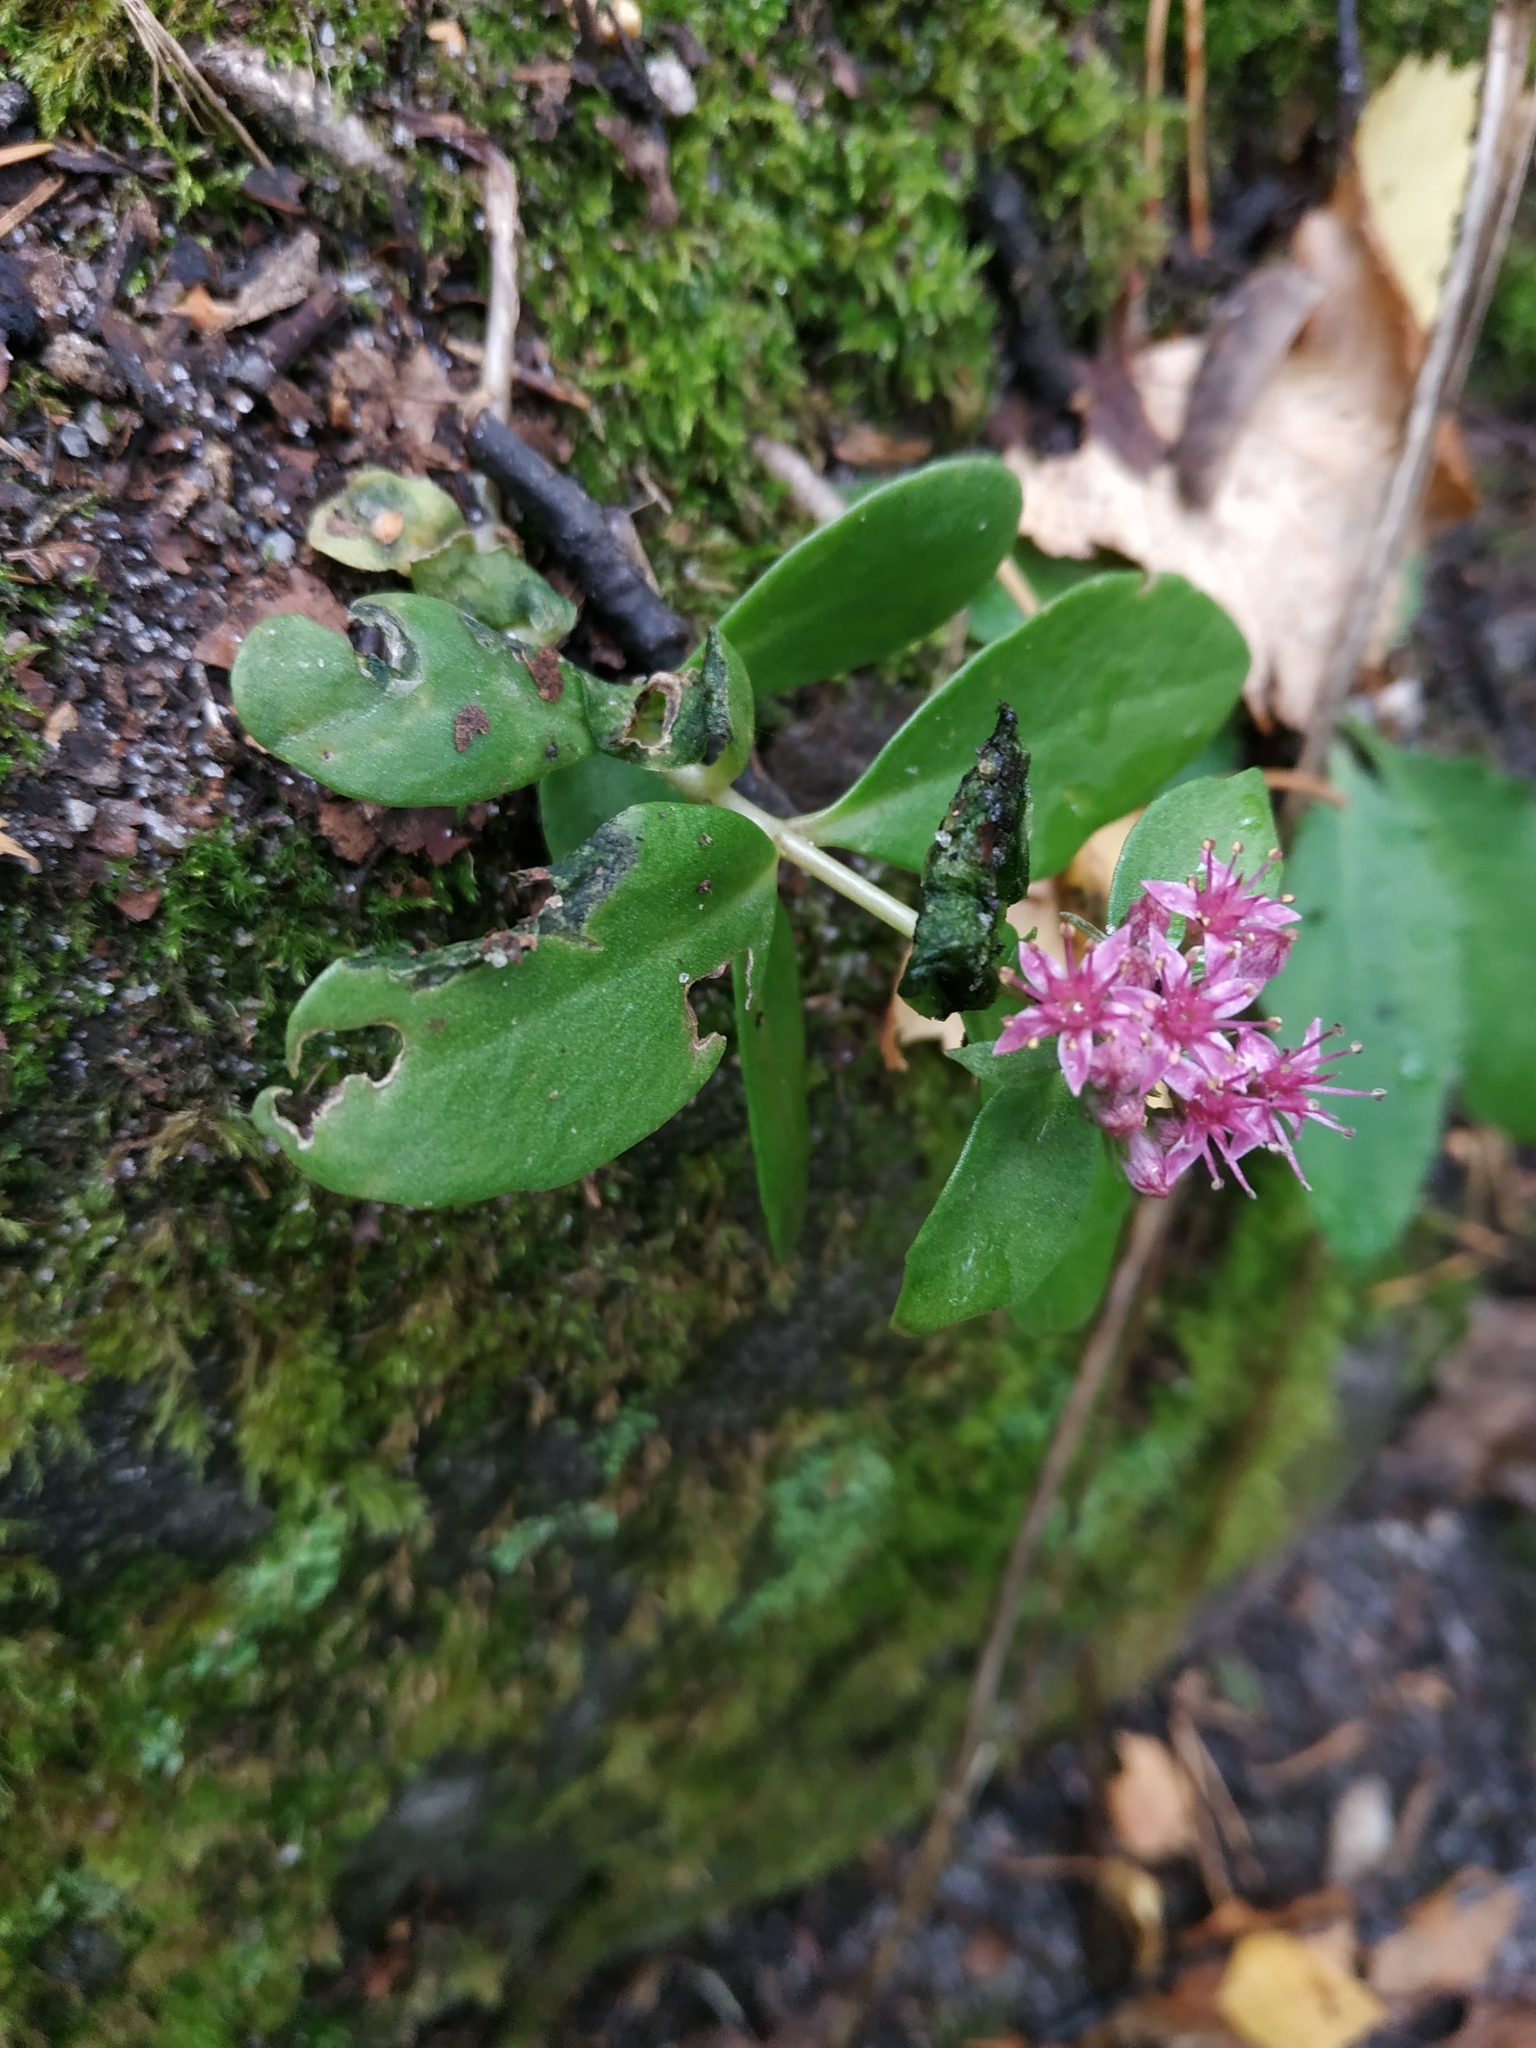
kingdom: Plantae
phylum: Tracheophyta
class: Magnoliopsida
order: Saxifragales
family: Crassulaceae
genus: Hylotelephium
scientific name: Hylotelephium telephium
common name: Live-forever
